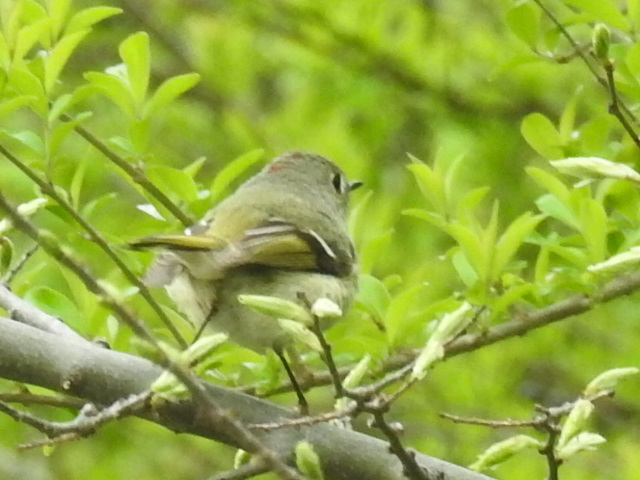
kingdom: Animalia
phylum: Chordata
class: Aves
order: Passeriformes
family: Regulidae
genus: Regulus
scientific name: Regulus calendula
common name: Ruby-crowned kinglet
